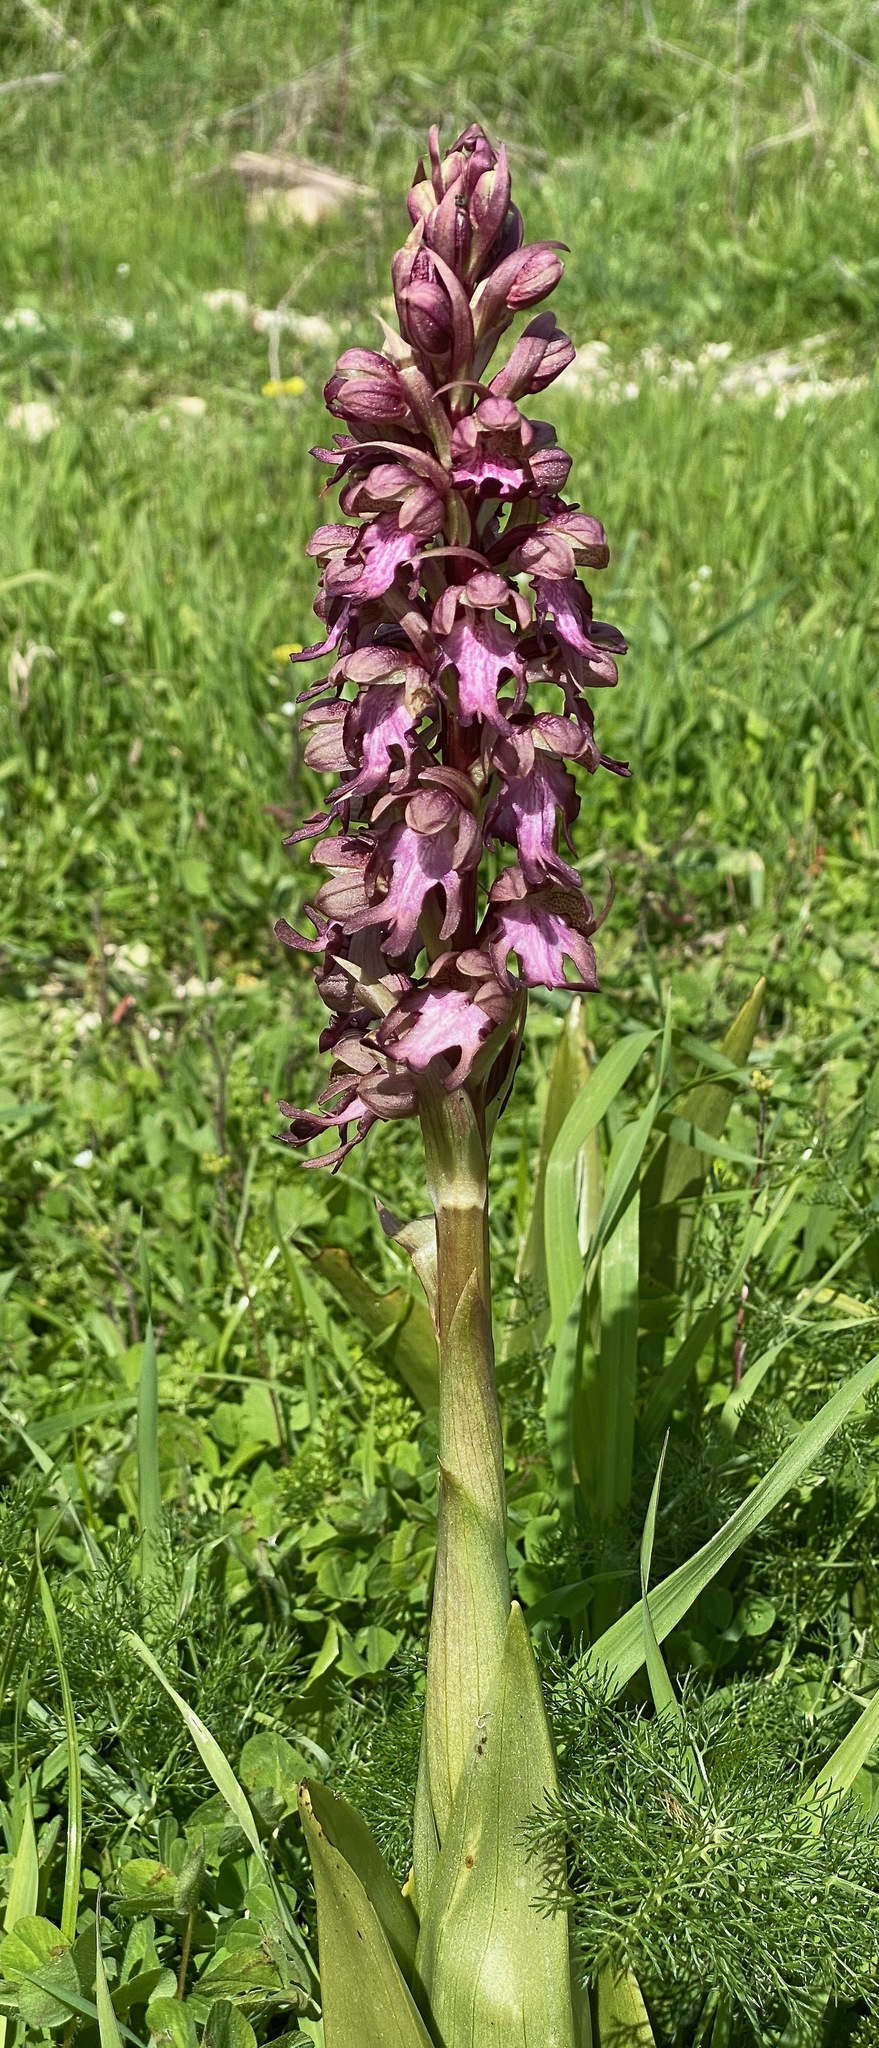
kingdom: Plantae
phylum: Tracheophyta
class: Liliopsida
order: Asparagales
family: Orchidaceae
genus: Himantoglossum
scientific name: Himantoglossum robertianum
